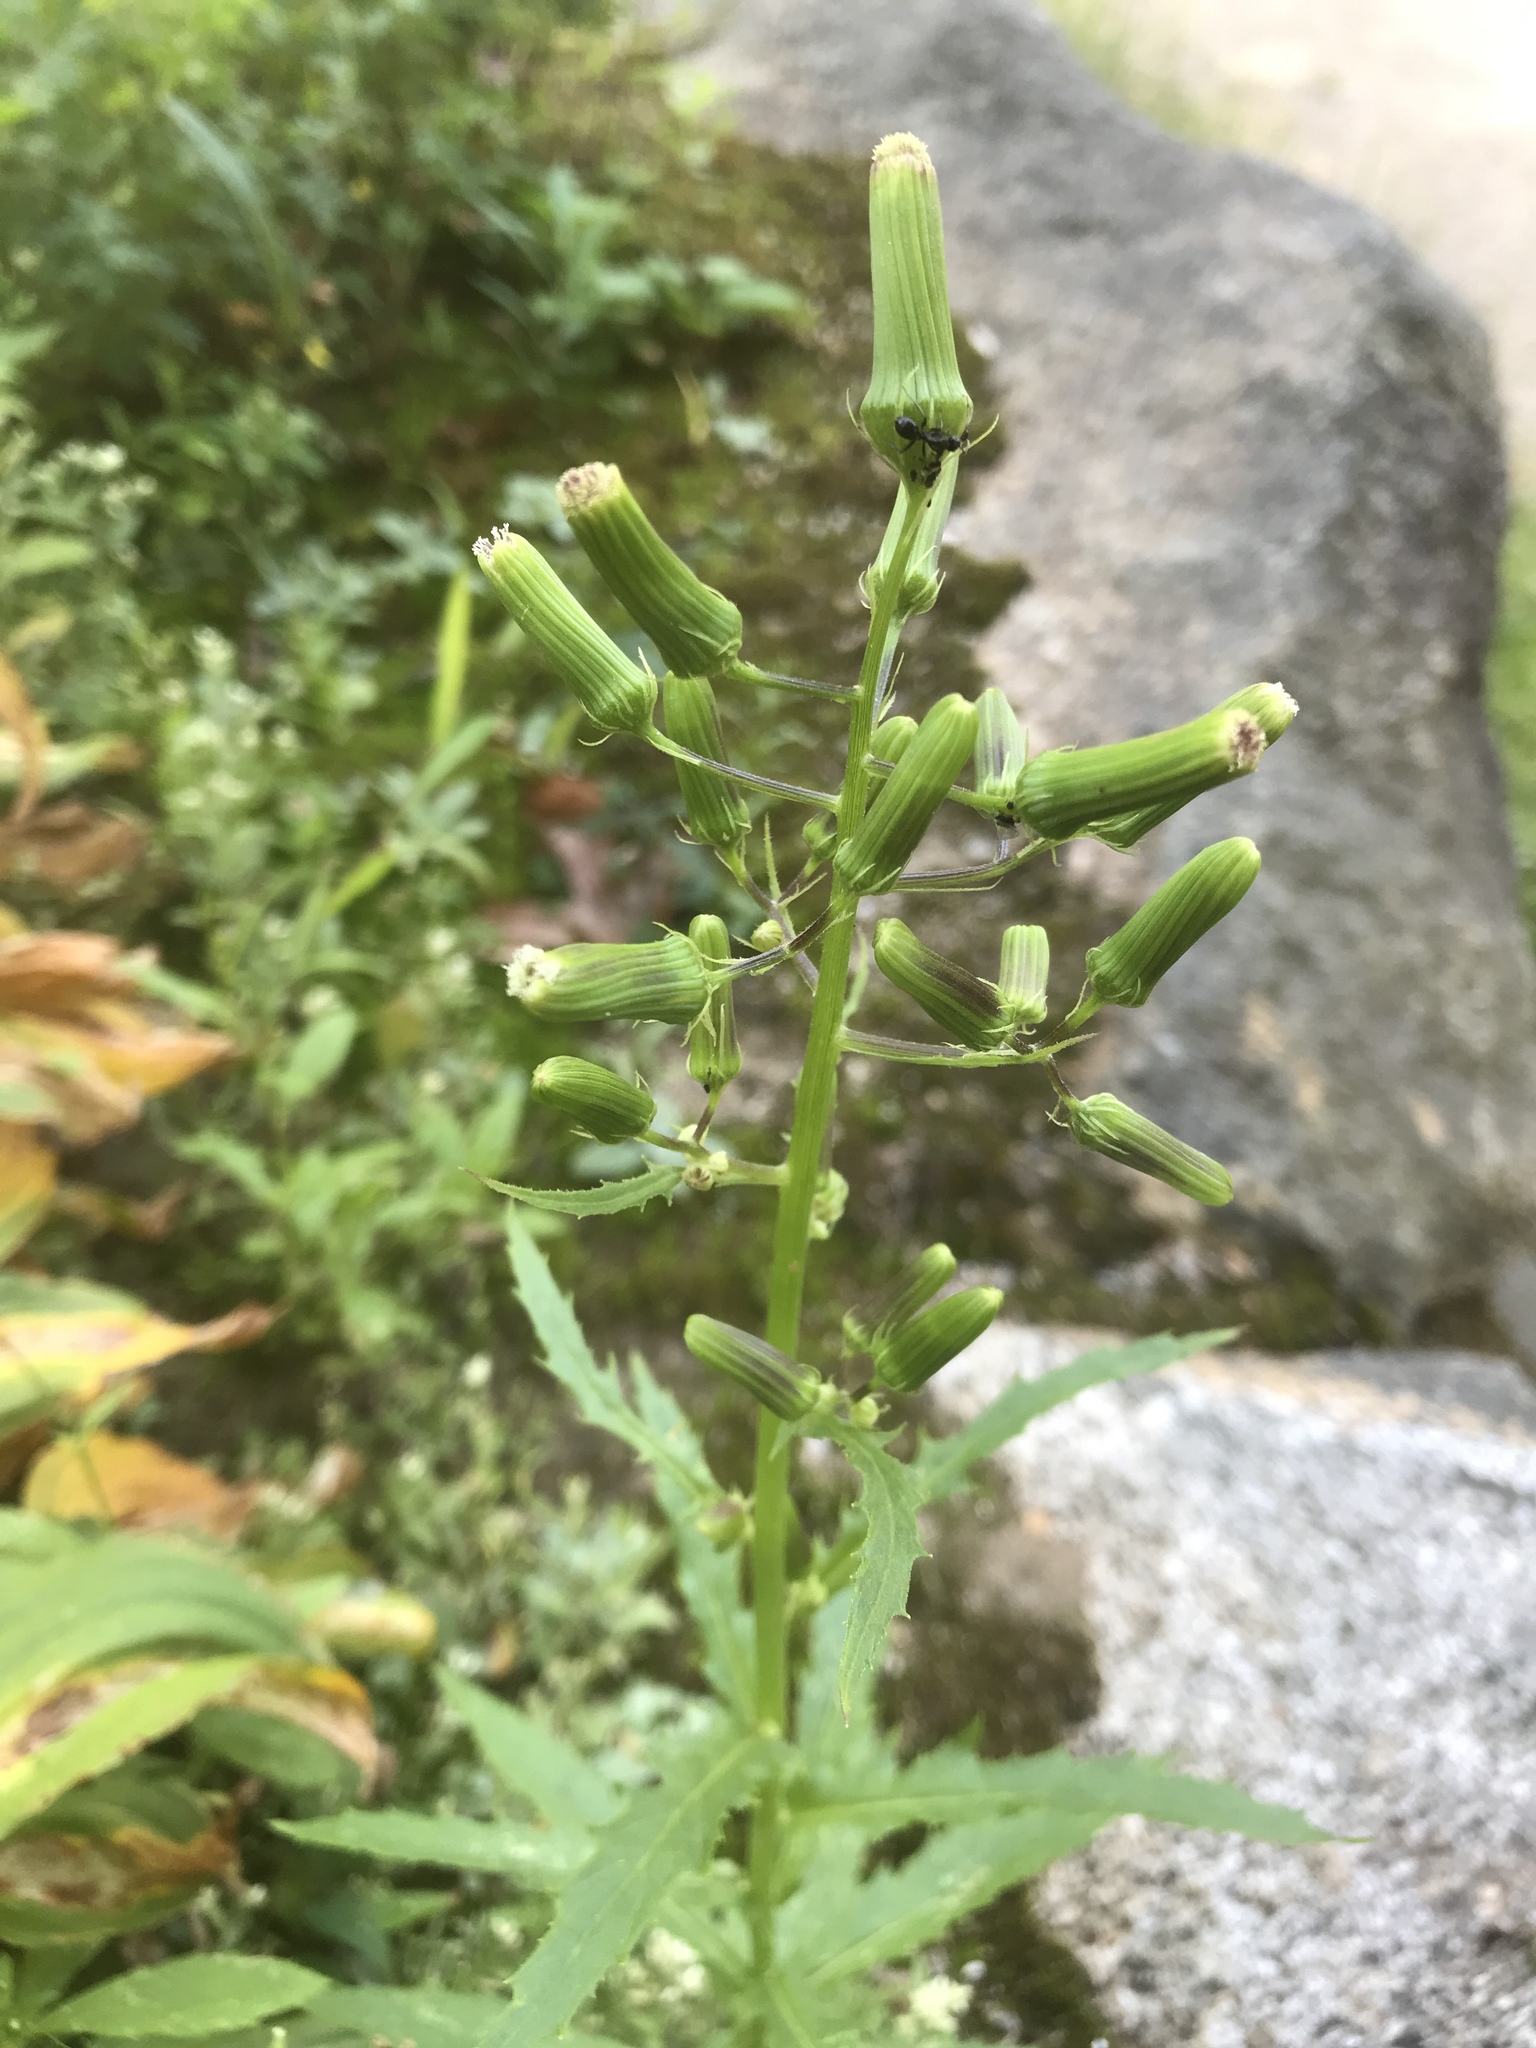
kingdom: Plantae
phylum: Tracheophyta
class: Magnoliopsida
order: Asterales
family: Asteraceae
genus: Erechtites
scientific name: Erechtites hieraciifolius
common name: American burnweed
